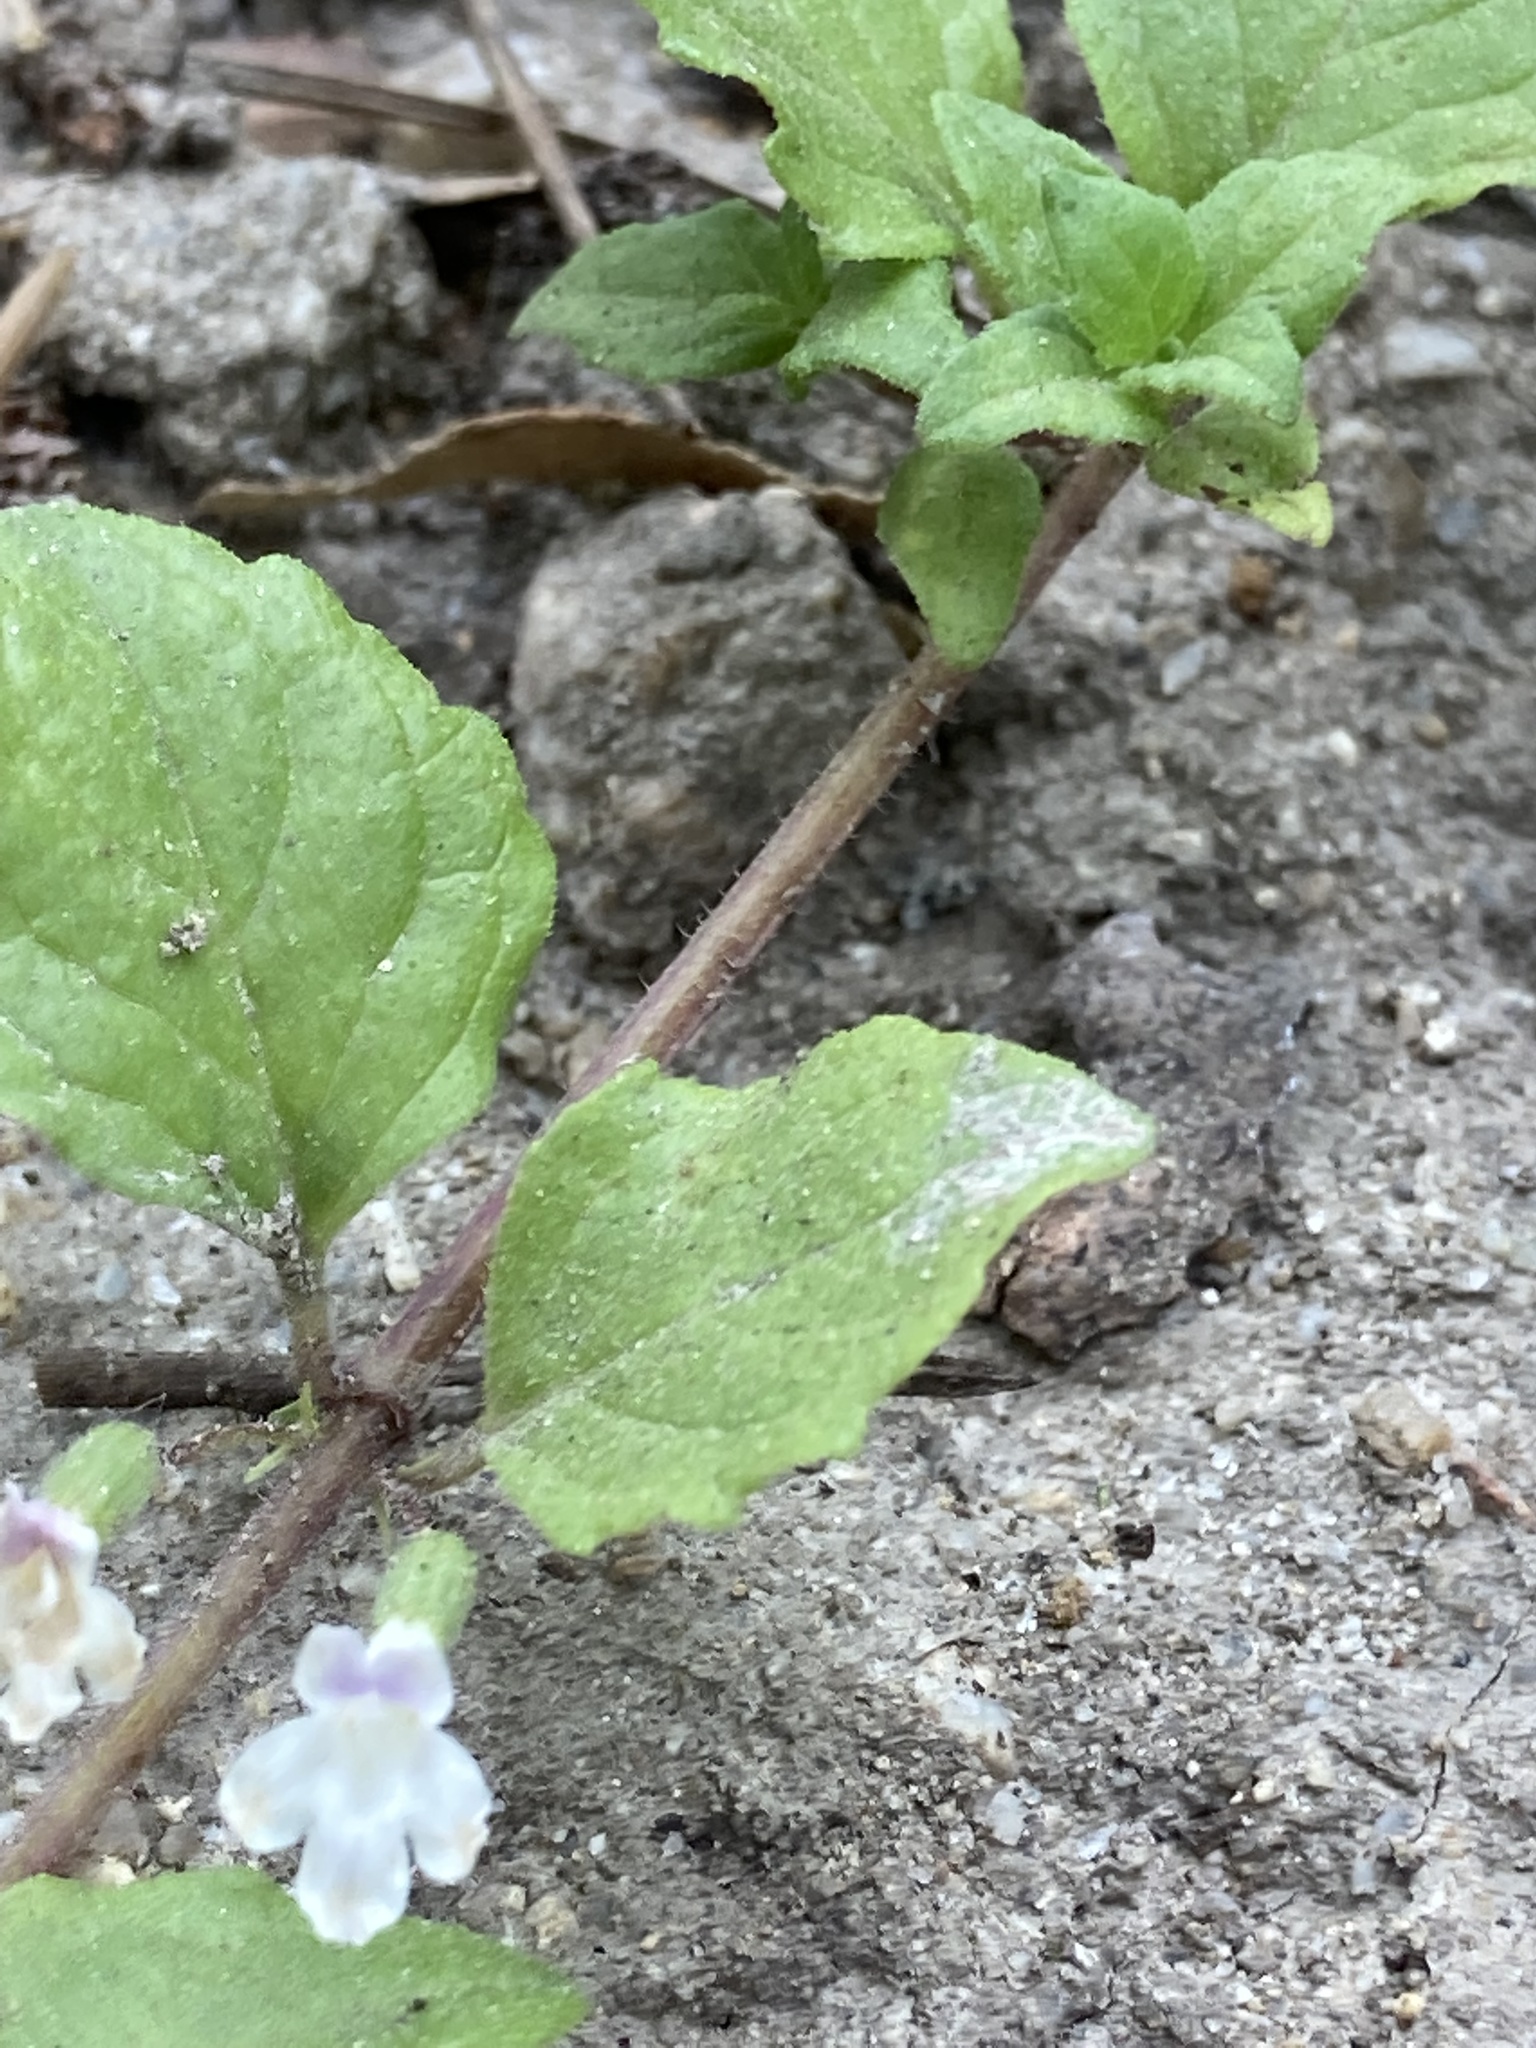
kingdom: Plantae
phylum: Tracheophyta
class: Magnoliopsida
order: Lamiales
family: Lamiaceae
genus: Micromeria
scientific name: Micromeria douglasii
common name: Yerba buena
